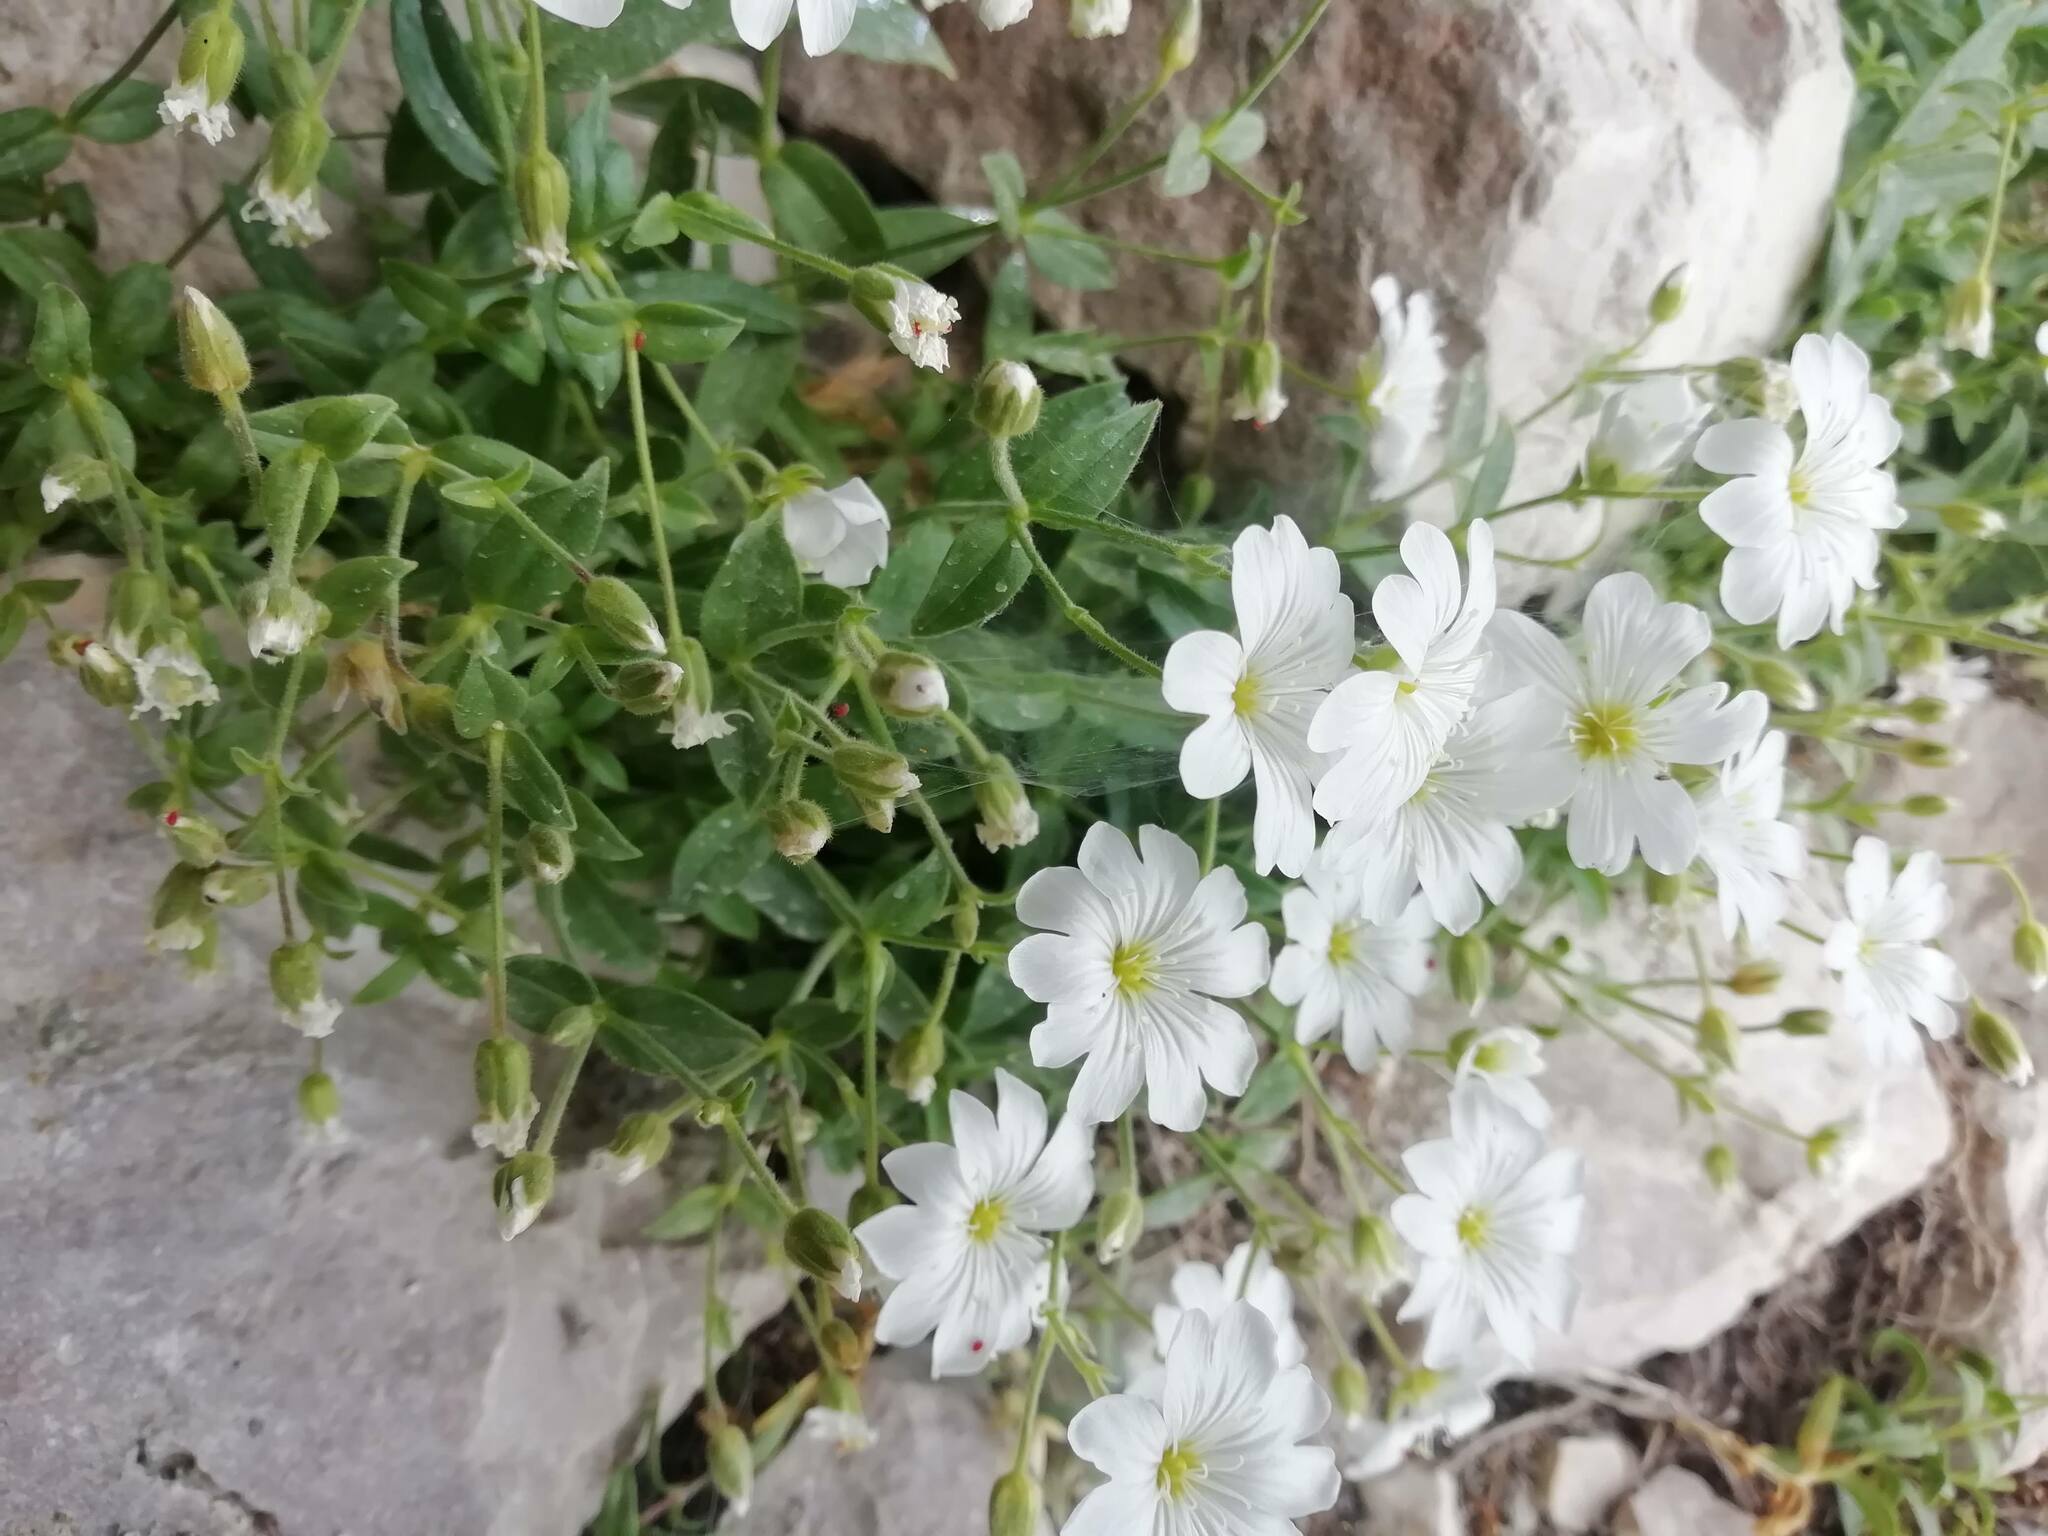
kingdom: Plantae
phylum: Tracheophyta
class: Magnoliopsida
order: Caryophyllales
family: Caryophyllaceae
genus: Cerastium
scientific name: Cerastium latifolium
